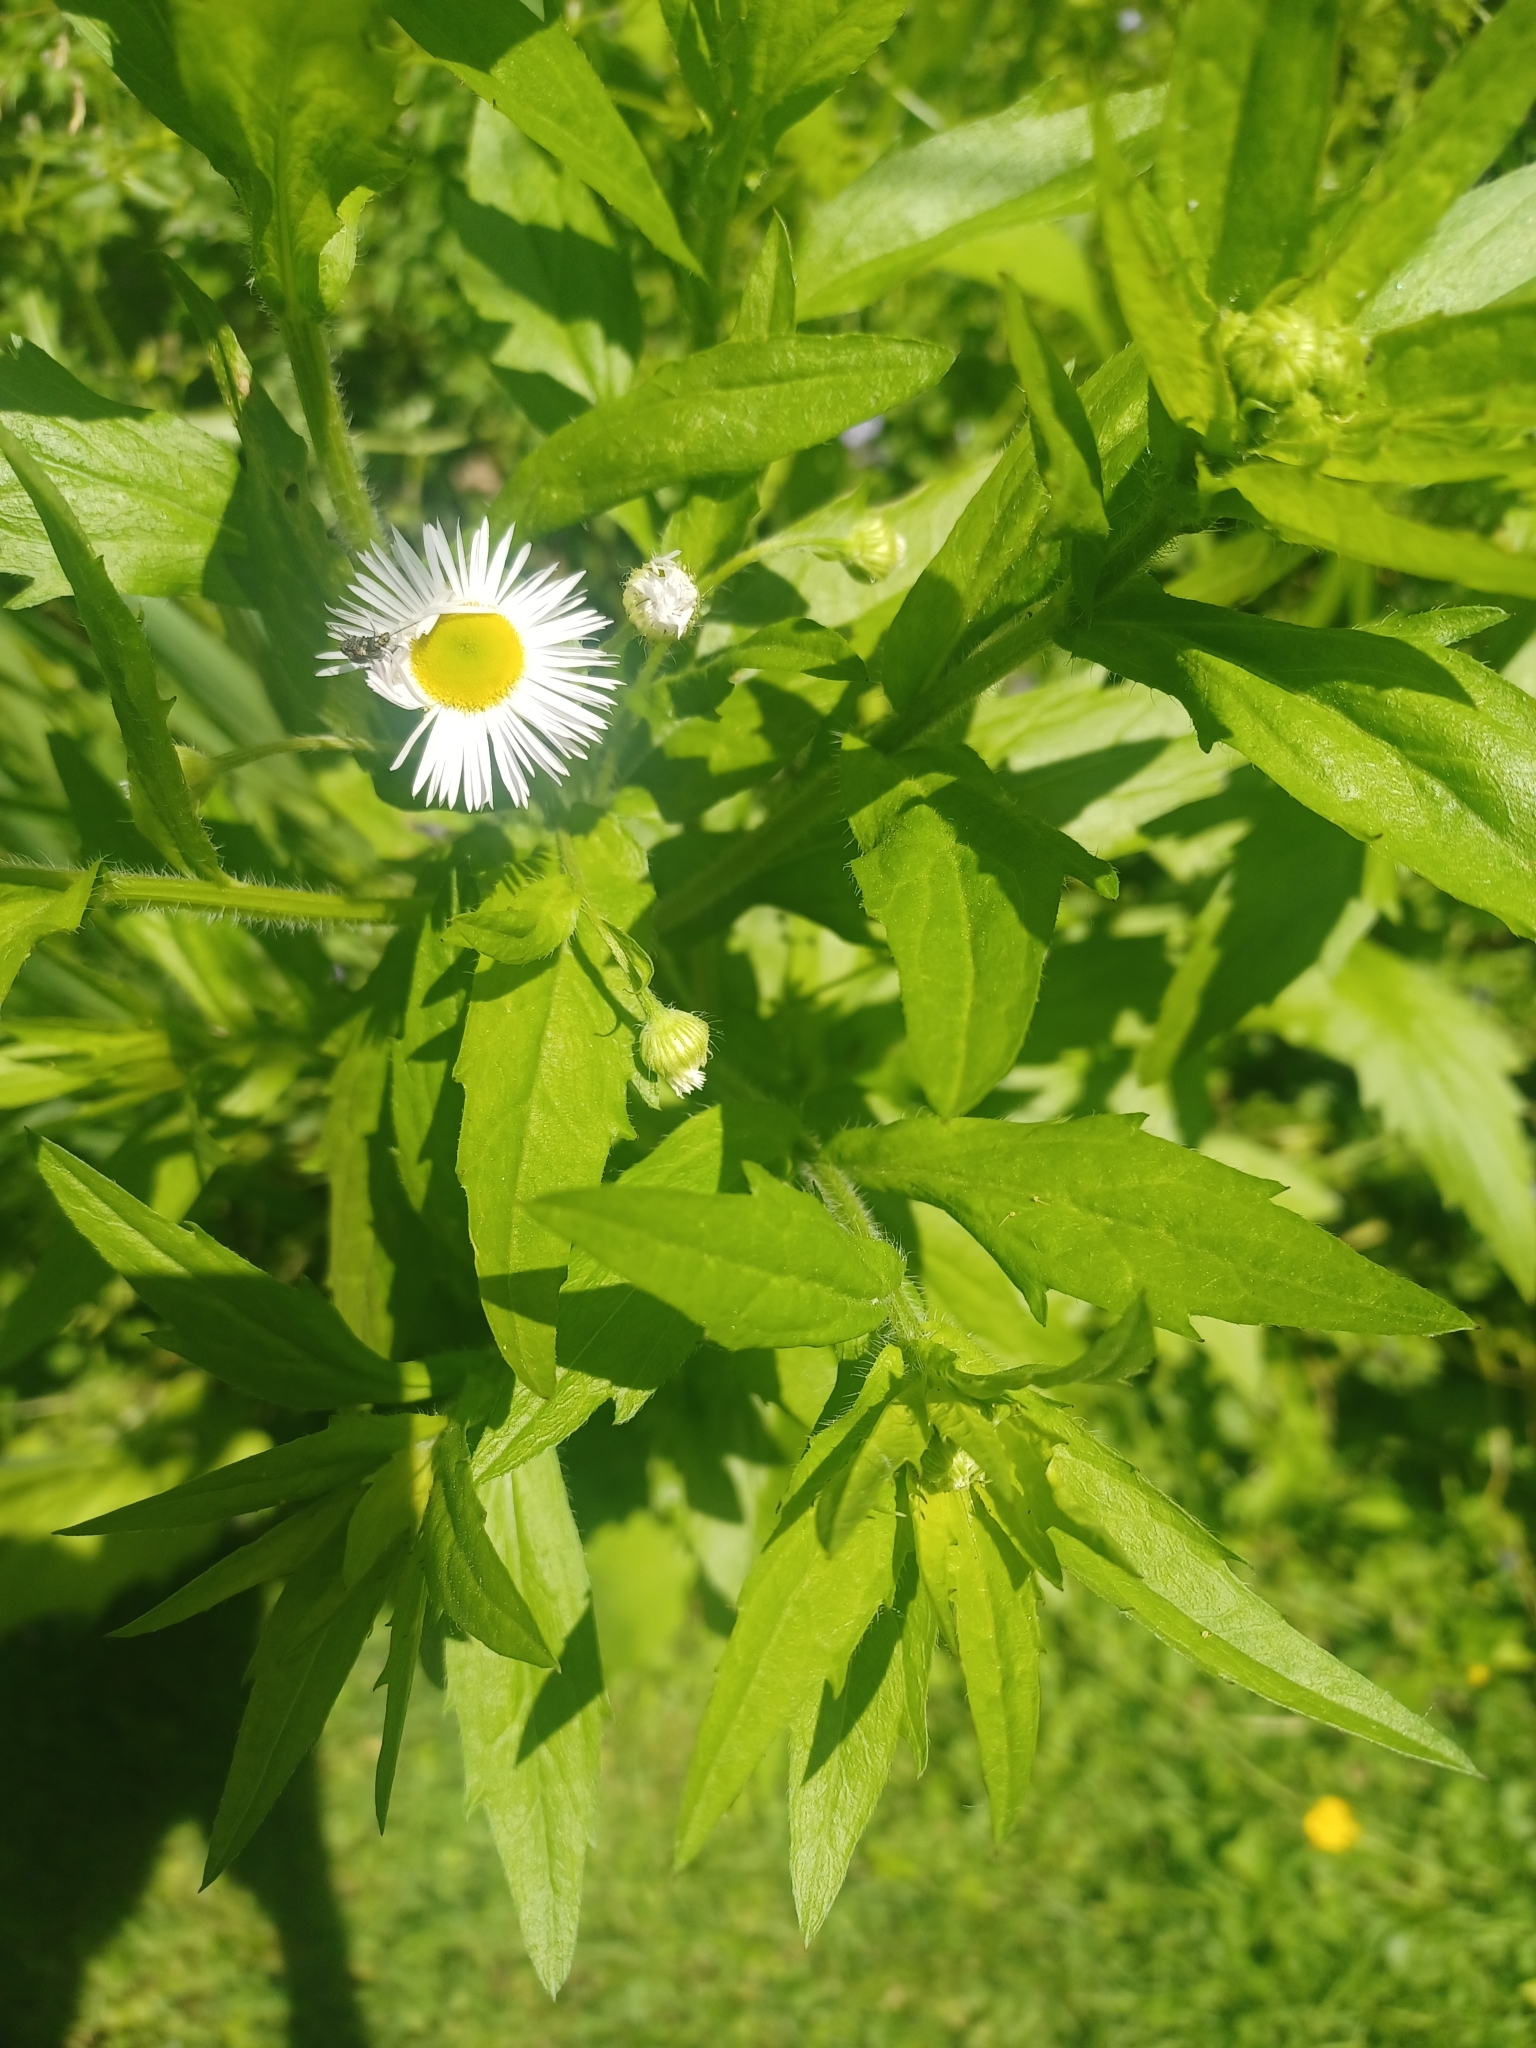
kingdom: Plantae
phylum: Tracheophyta
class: Magnoliopsida
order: Asterales
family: Asteraceae
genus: Erigeron
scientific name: Erigeron annuus
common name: Tall fleabane
